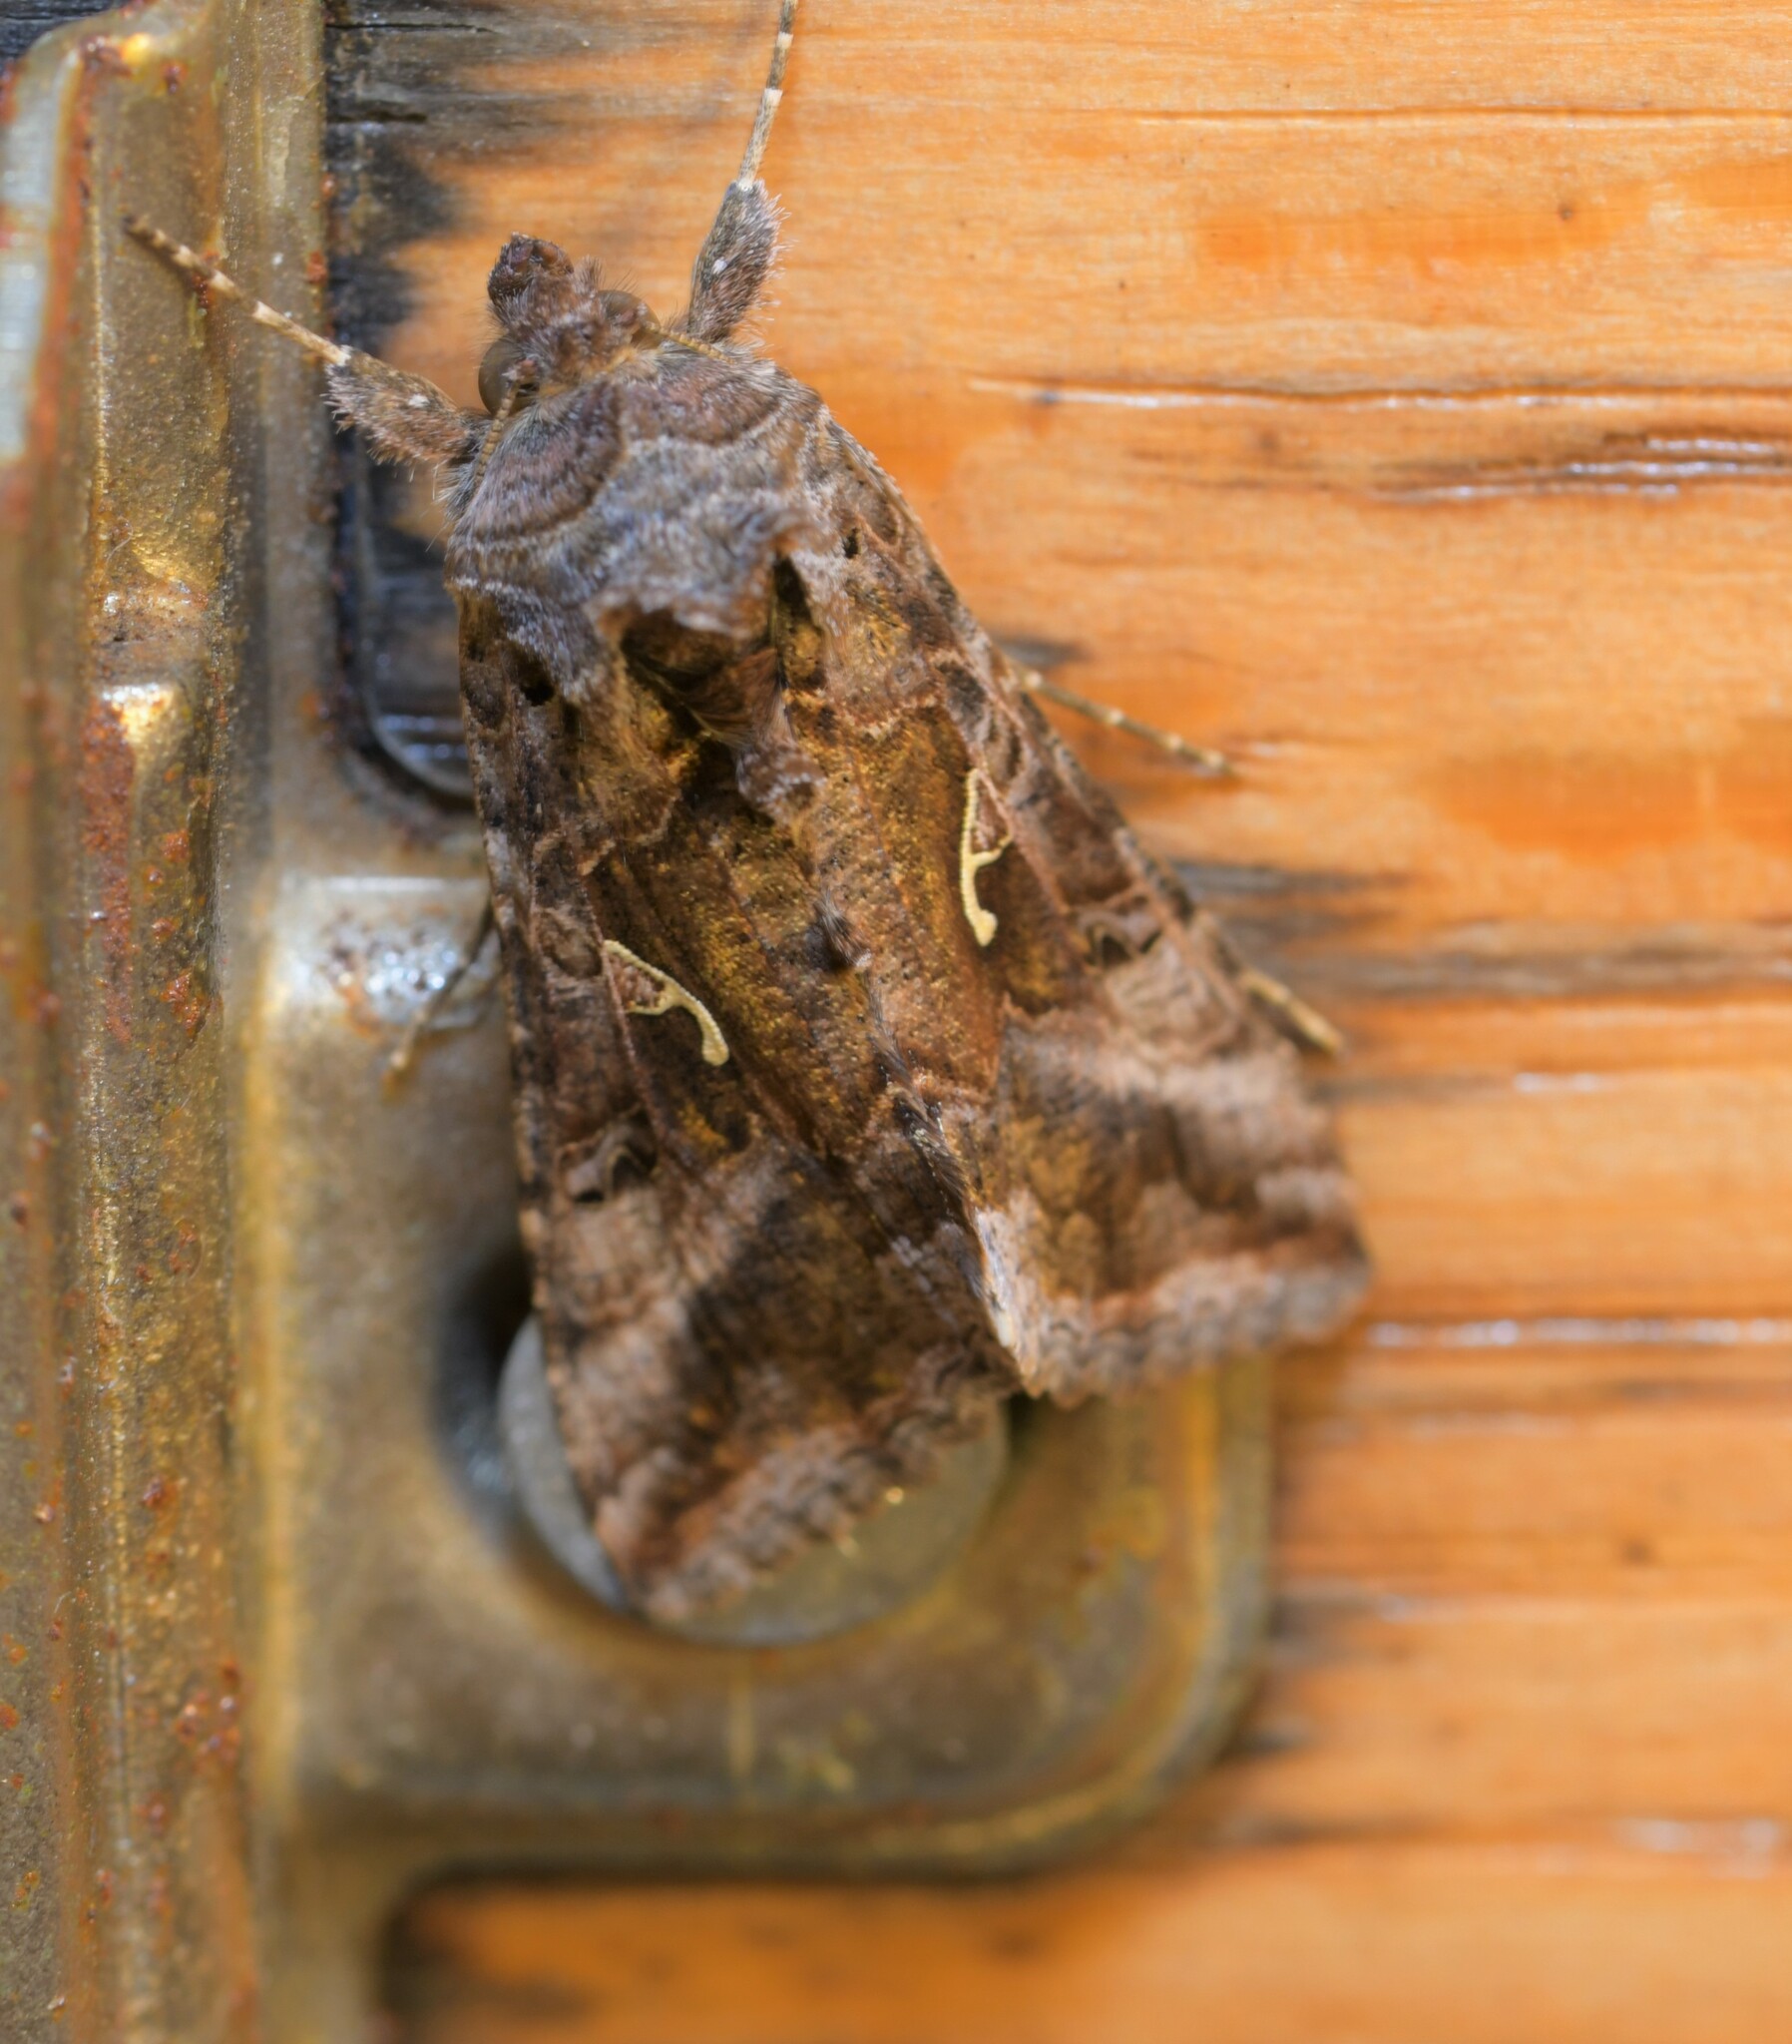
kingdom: Animalia
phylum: Arthropoda
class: Insecta
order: Lepidoptera
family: Noctuidae
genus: Autographa
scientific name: Autographa gamma
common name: Silver y
